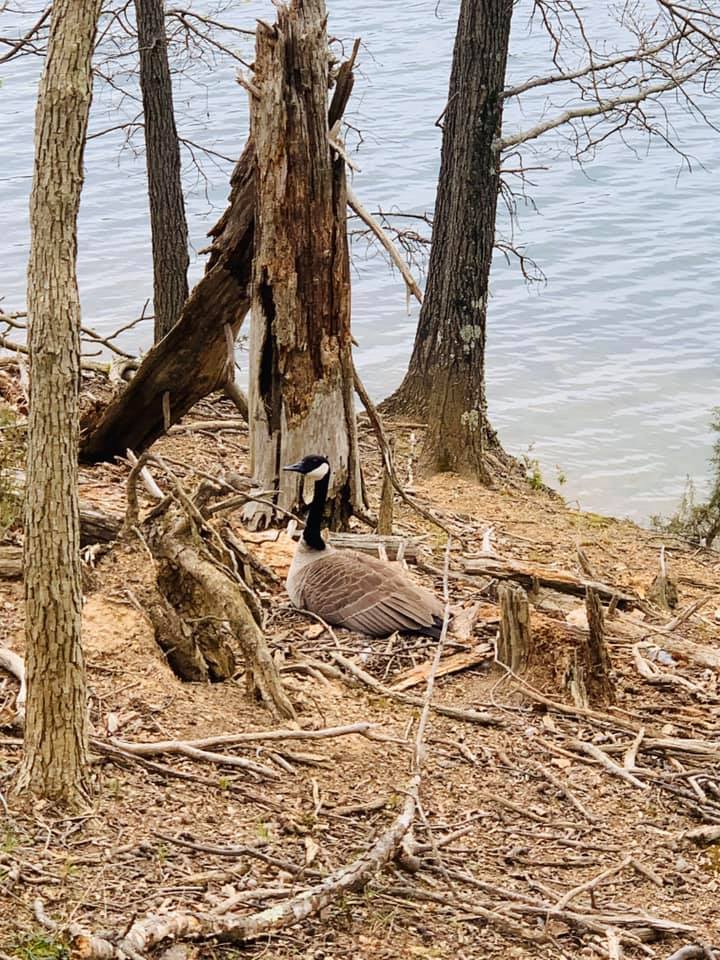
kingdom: Animalia
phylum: Chordata
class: Aves
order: Anseriformes
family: Anatidae
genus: Branta
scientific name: Branta canadensis
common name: Canada goose
